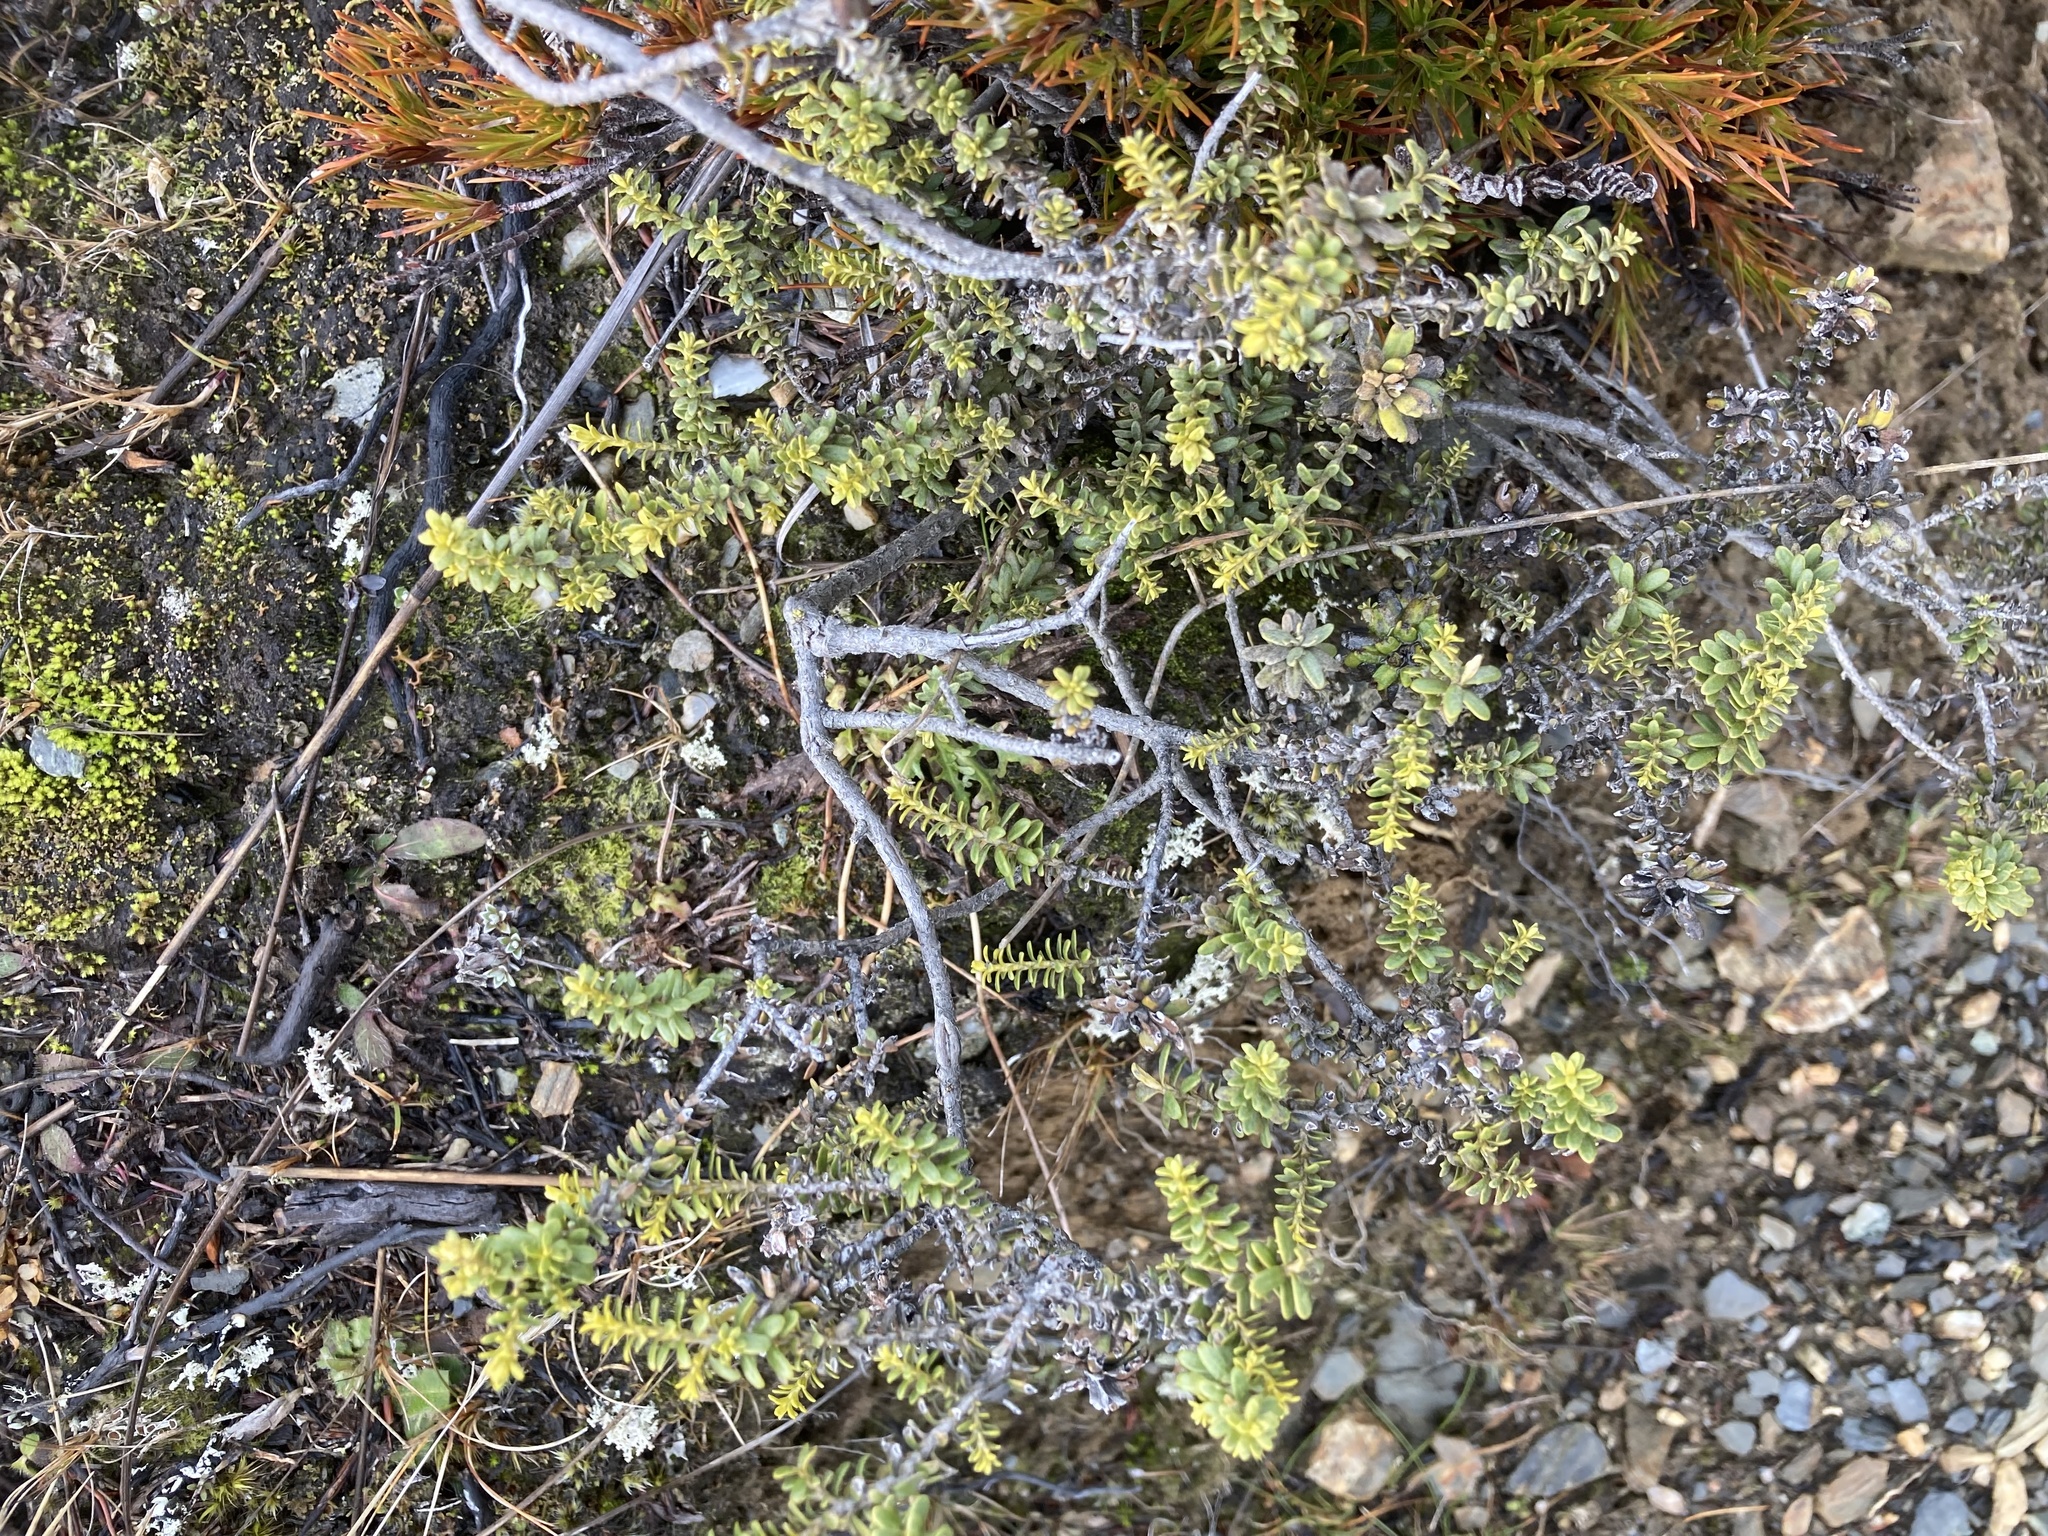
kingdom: Plantae
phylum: Tracheophyta
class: Magnoliopsida
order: Asterales
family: Asteraceae
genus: Ozothamnus
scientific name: Ozothamnus leptophyllus
